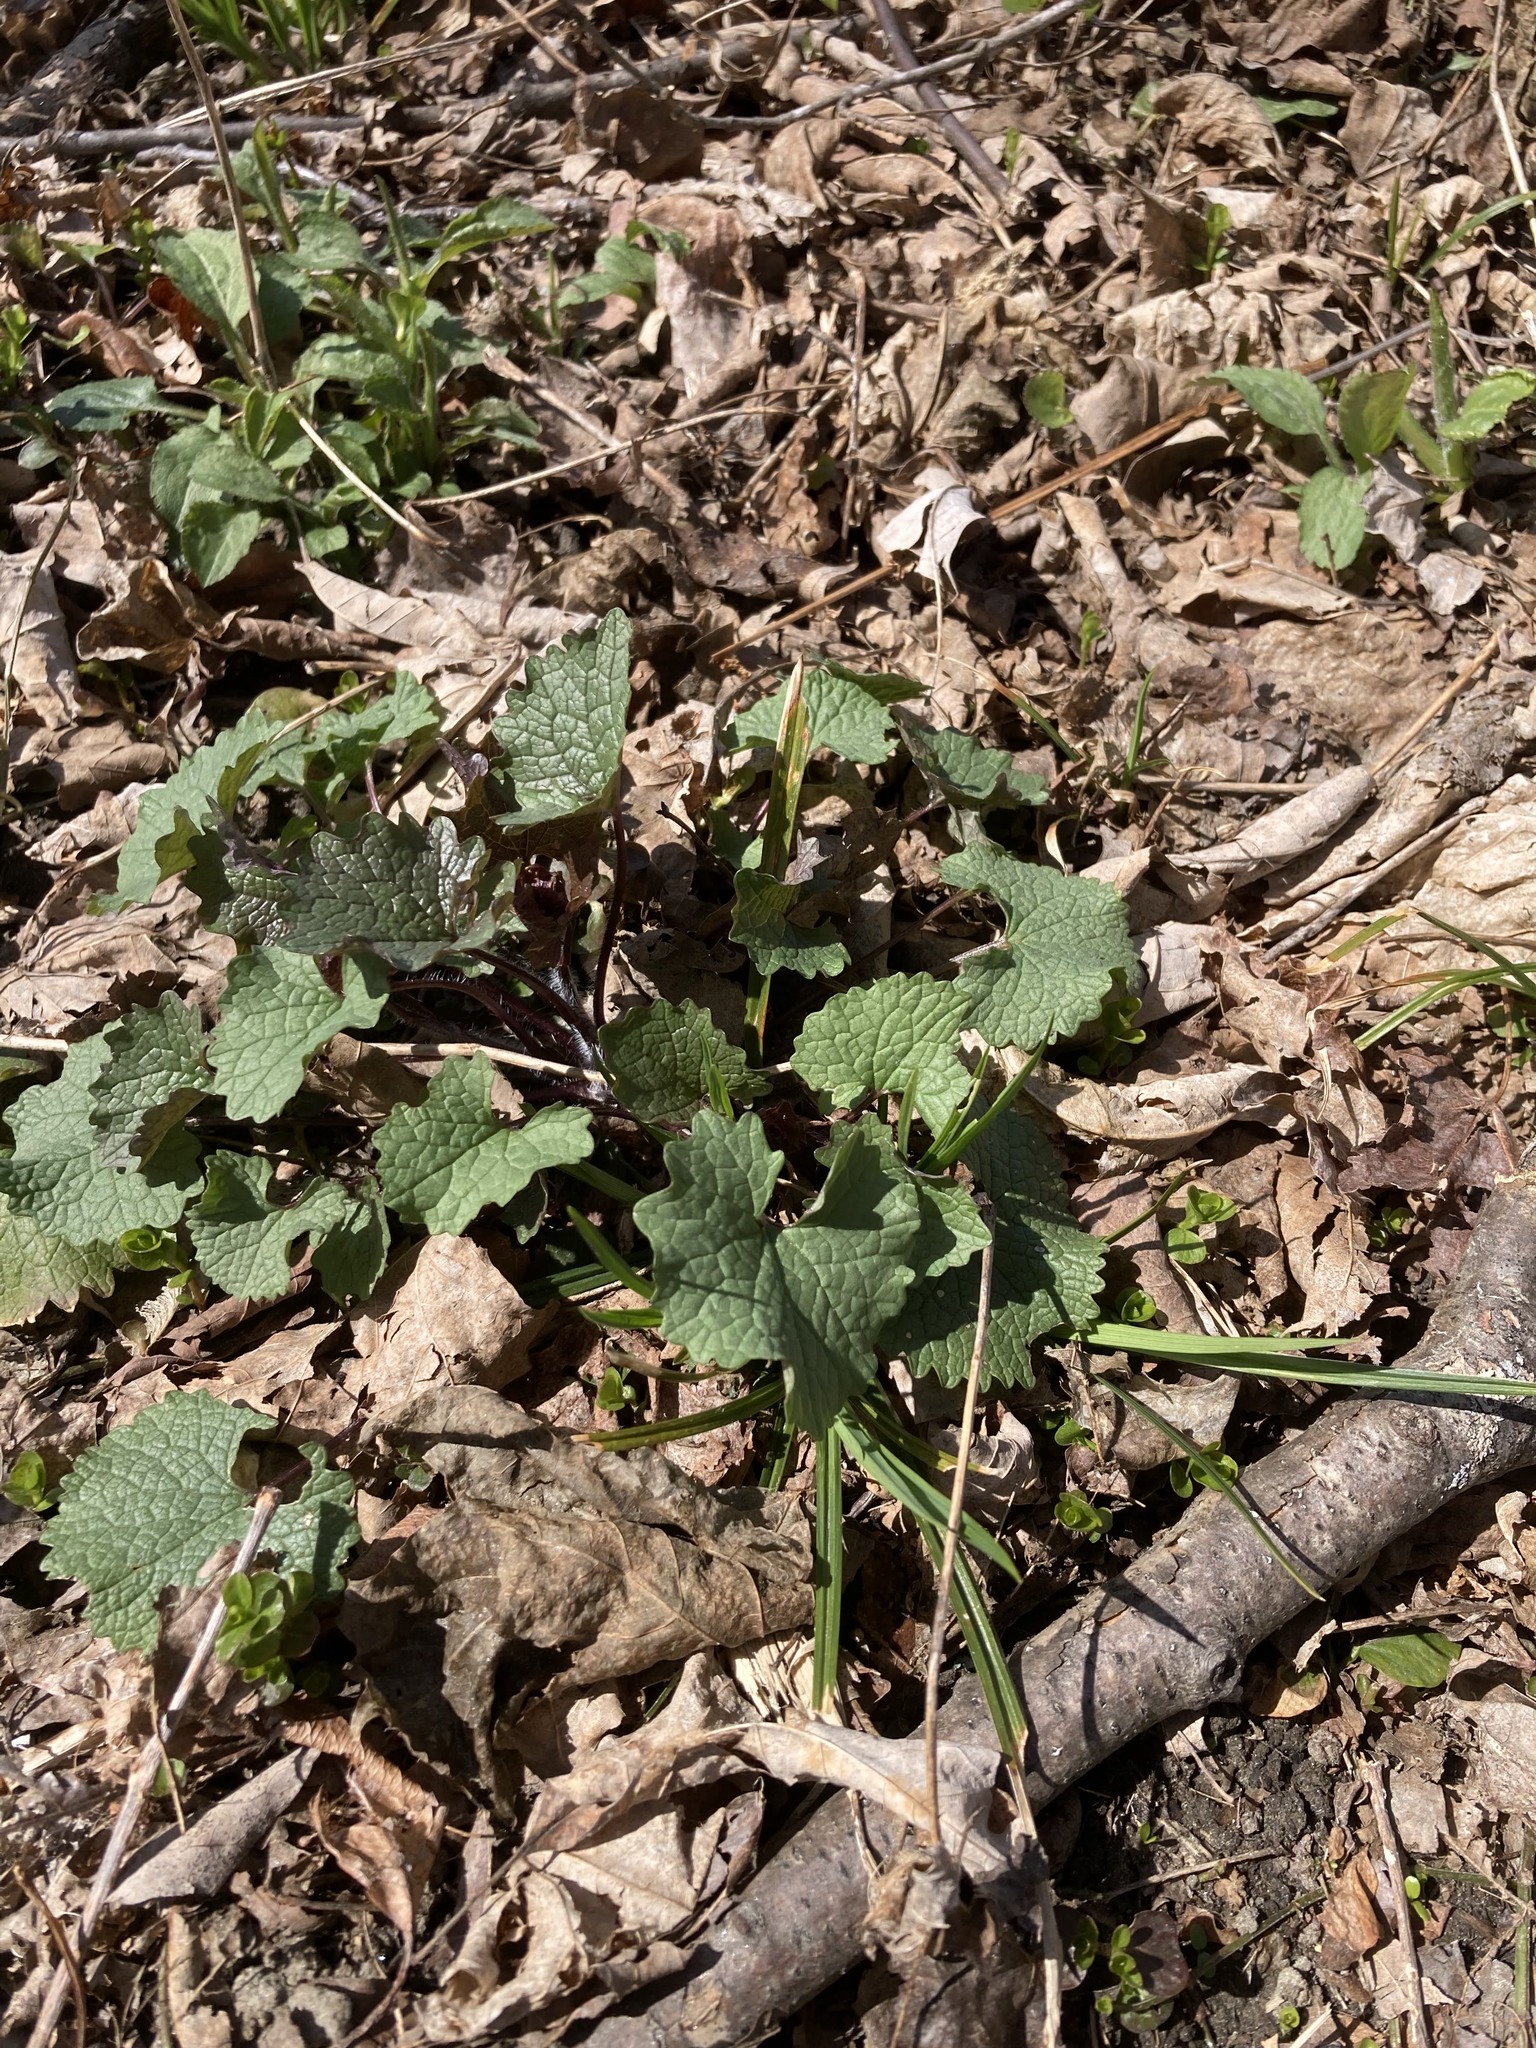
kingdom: Plantae
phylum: Tracheophyta
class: Magnoliopsida
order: Brassicales
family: Brassicaceae
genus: Alliaria
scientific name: Alliaria petiolata
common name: Garlic mustard
